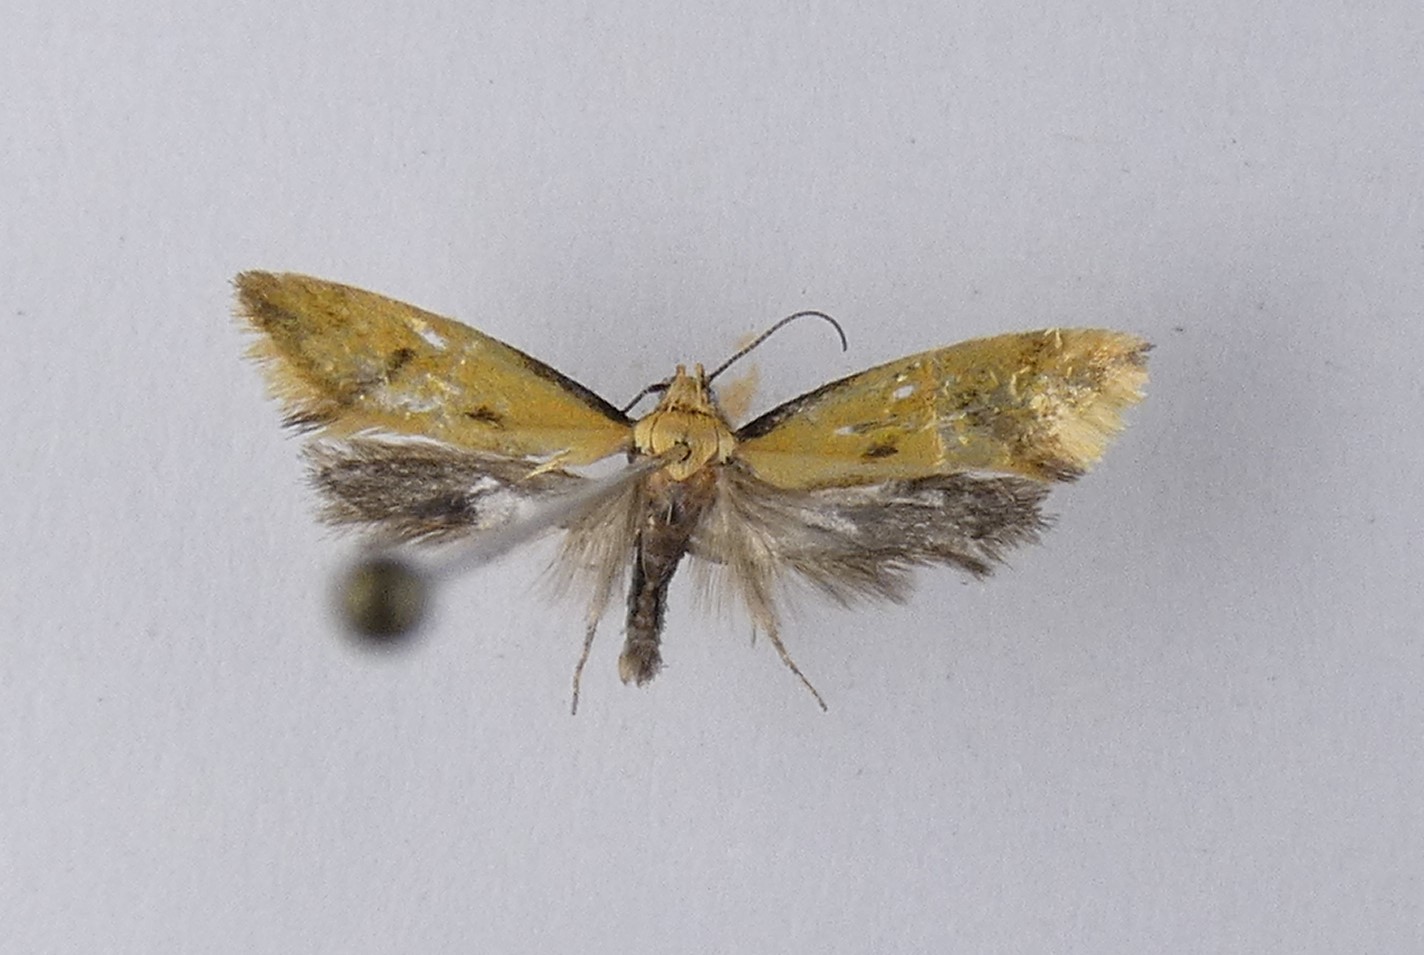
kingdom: Animalia
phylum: Arthropoda
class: Insecta
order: Lepidoptera
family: Oecophoridae
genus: Tingena
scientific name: Tingena actinias
